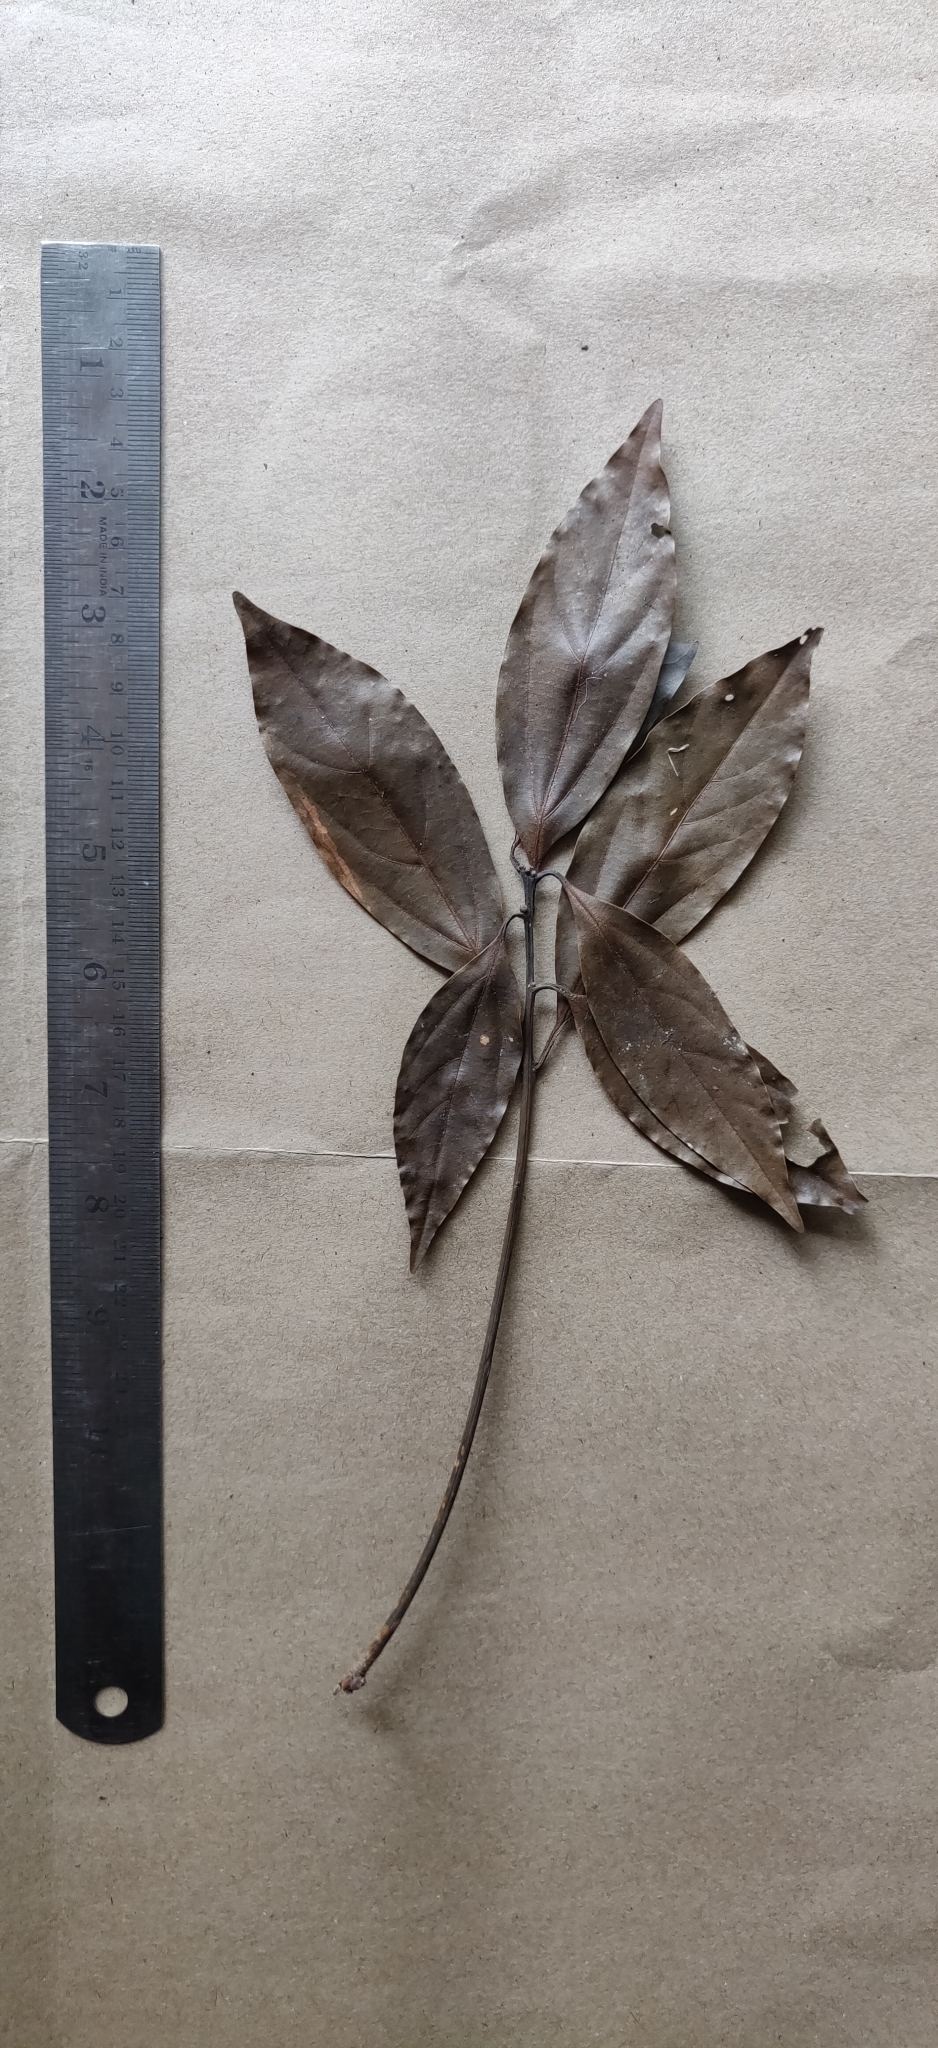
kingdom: Plantae
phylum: Tracheophyta
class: Magnoliopsida
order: Laurales
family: Lauraceae
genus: Neolitsea
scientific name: Neolitsea foliosa
